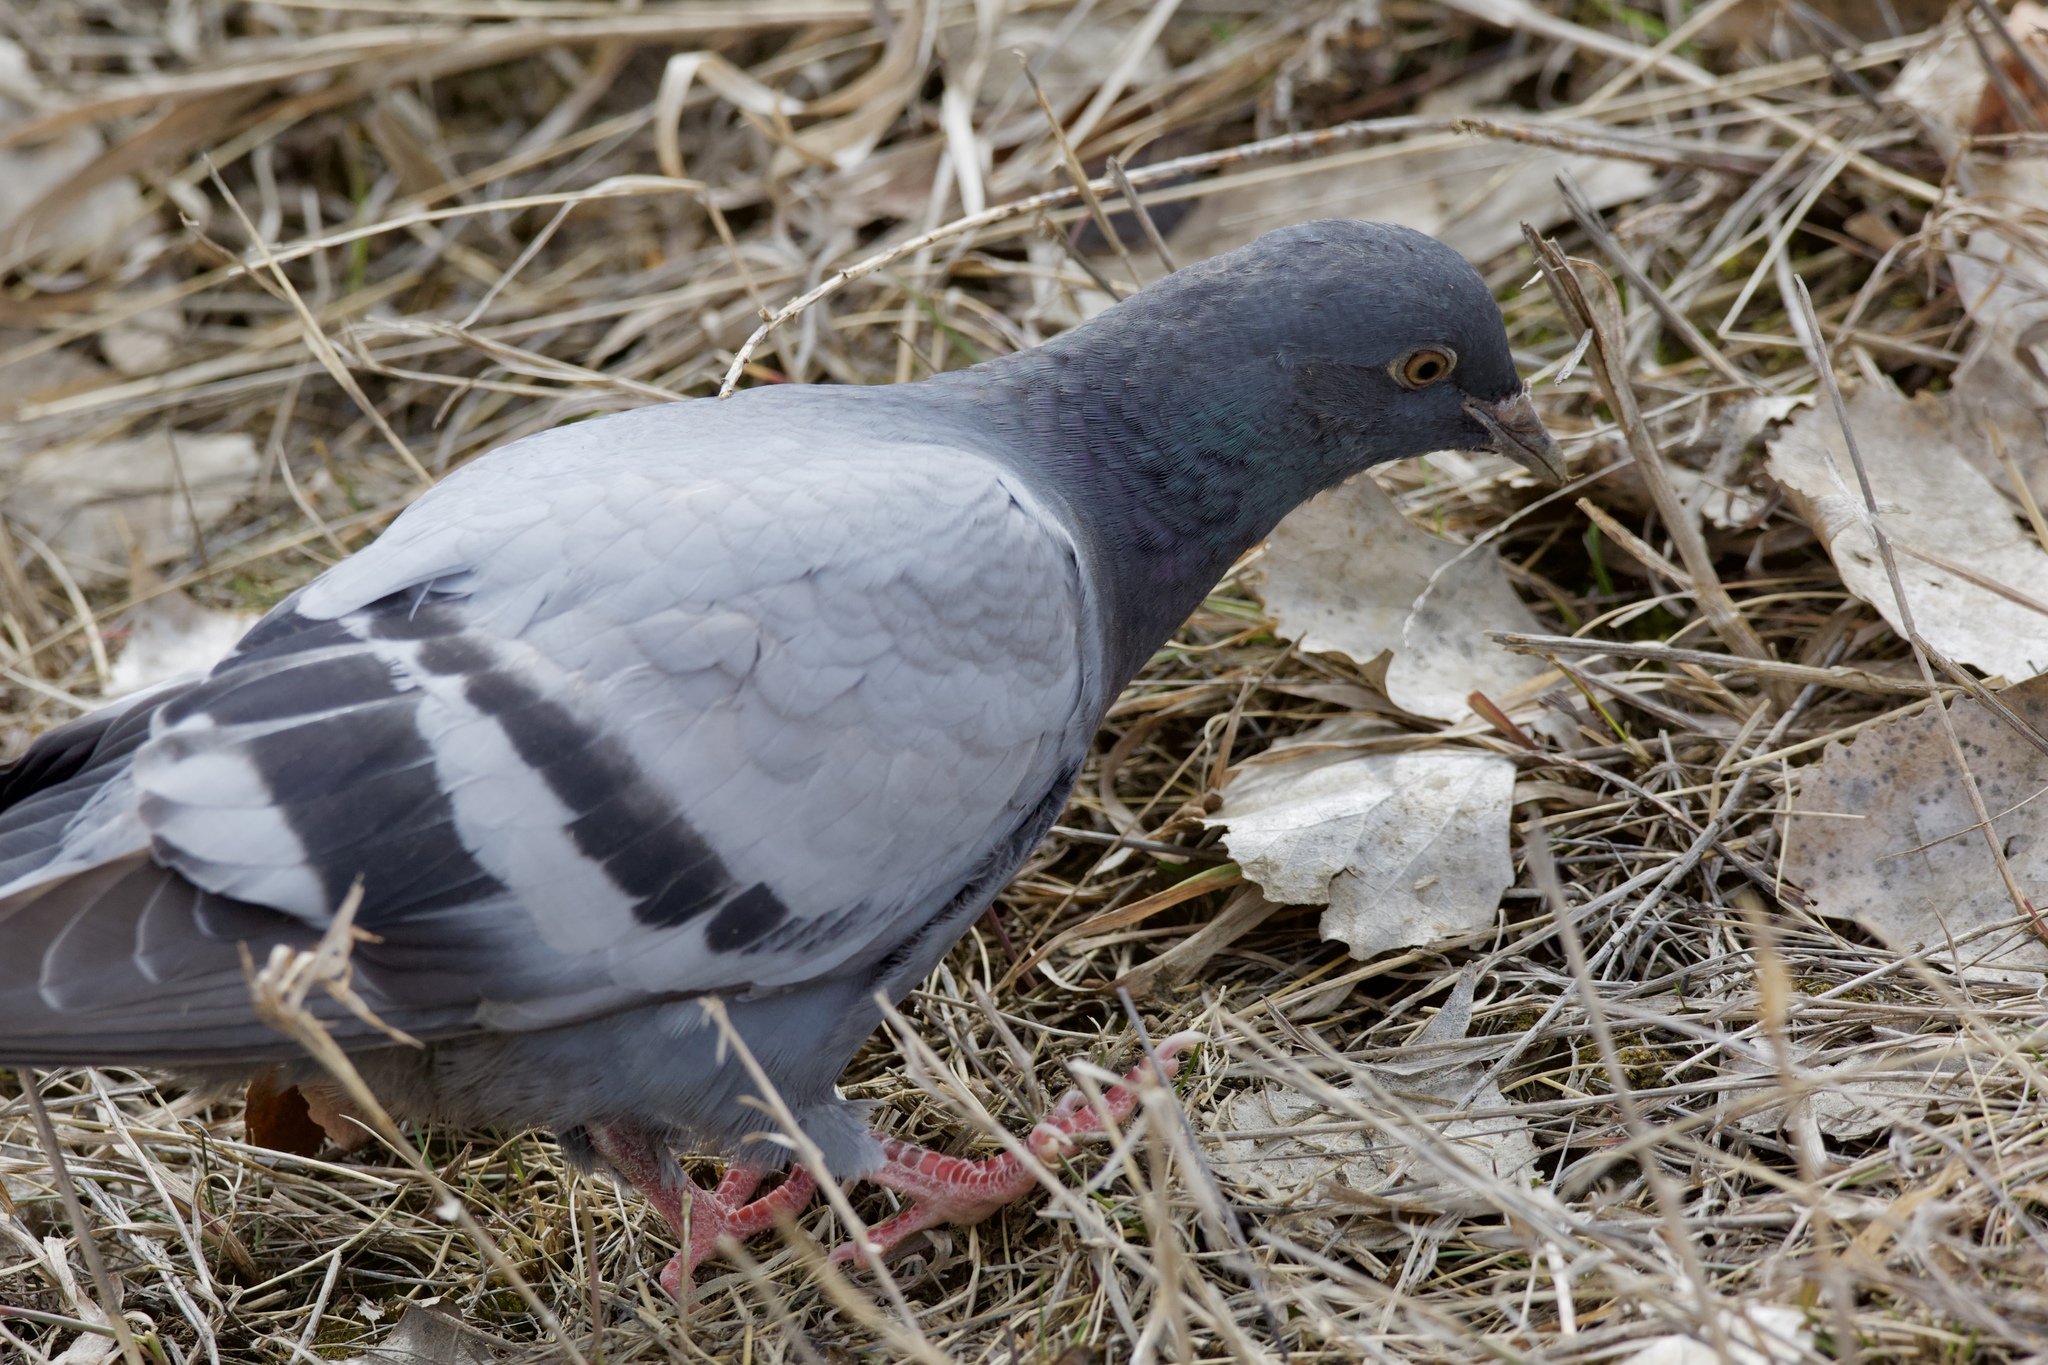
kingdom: Animalia
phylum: Chordata
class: Aves
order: Columbiformes
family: Columbidae
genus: Columba
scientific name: Columba livia
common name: Rock pigeon
